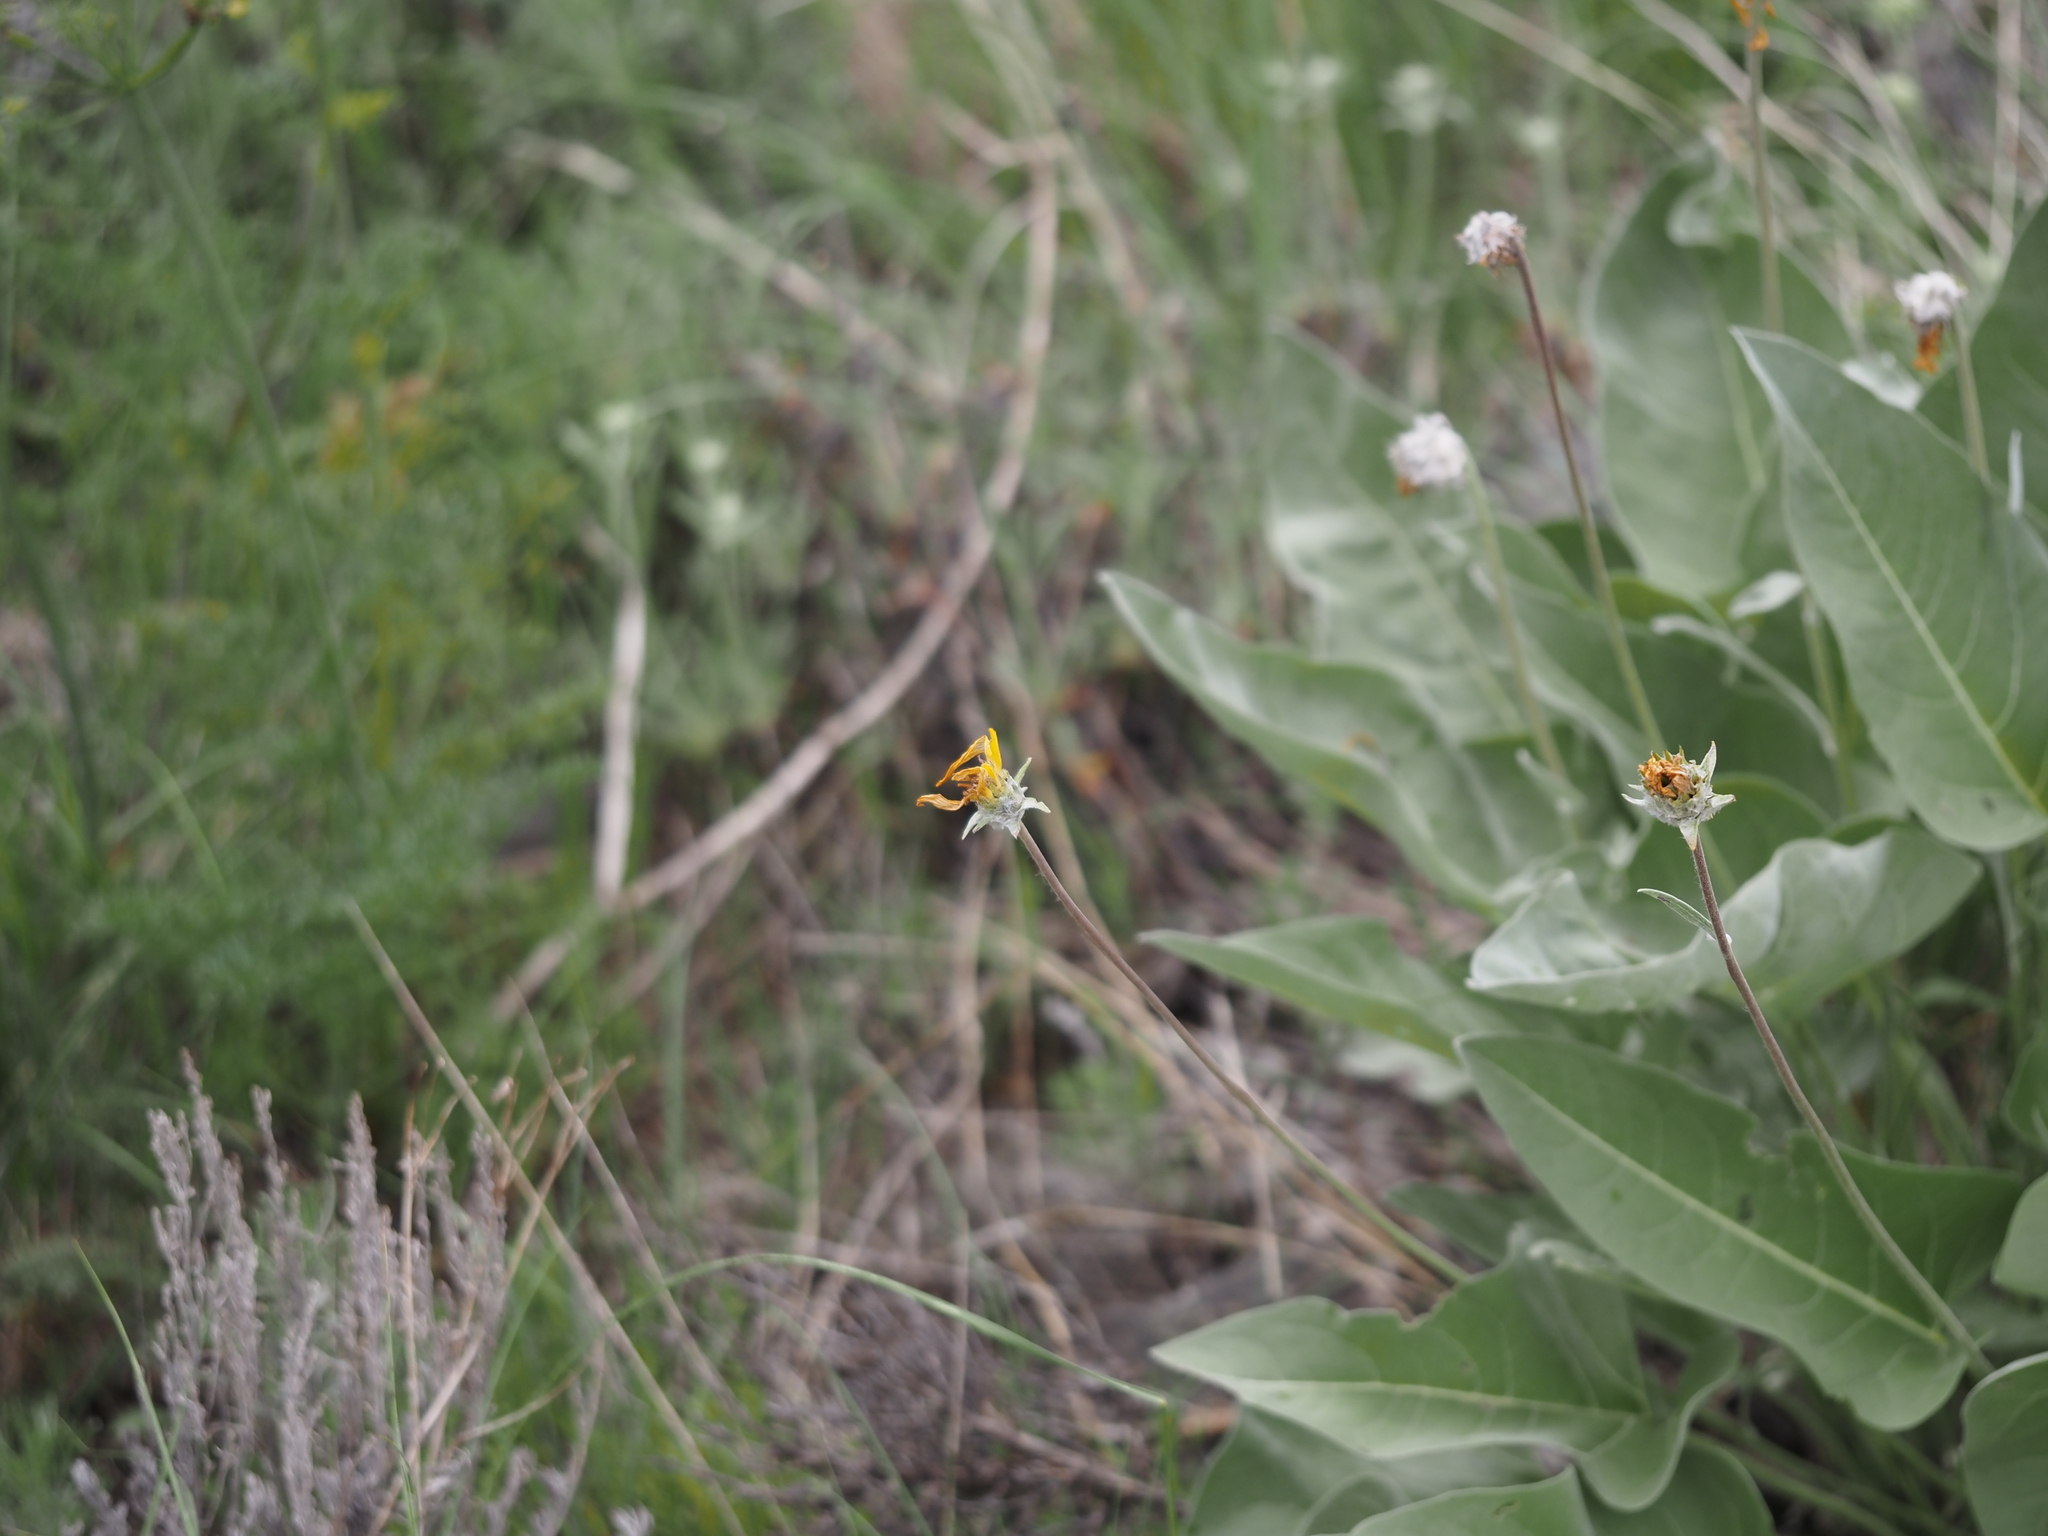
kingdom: Plantae
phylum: Tracheophyta
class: Magnoliopsida
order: Asterales
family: Asteraceae
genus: Wyethia
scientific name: Wyethia sagittata
